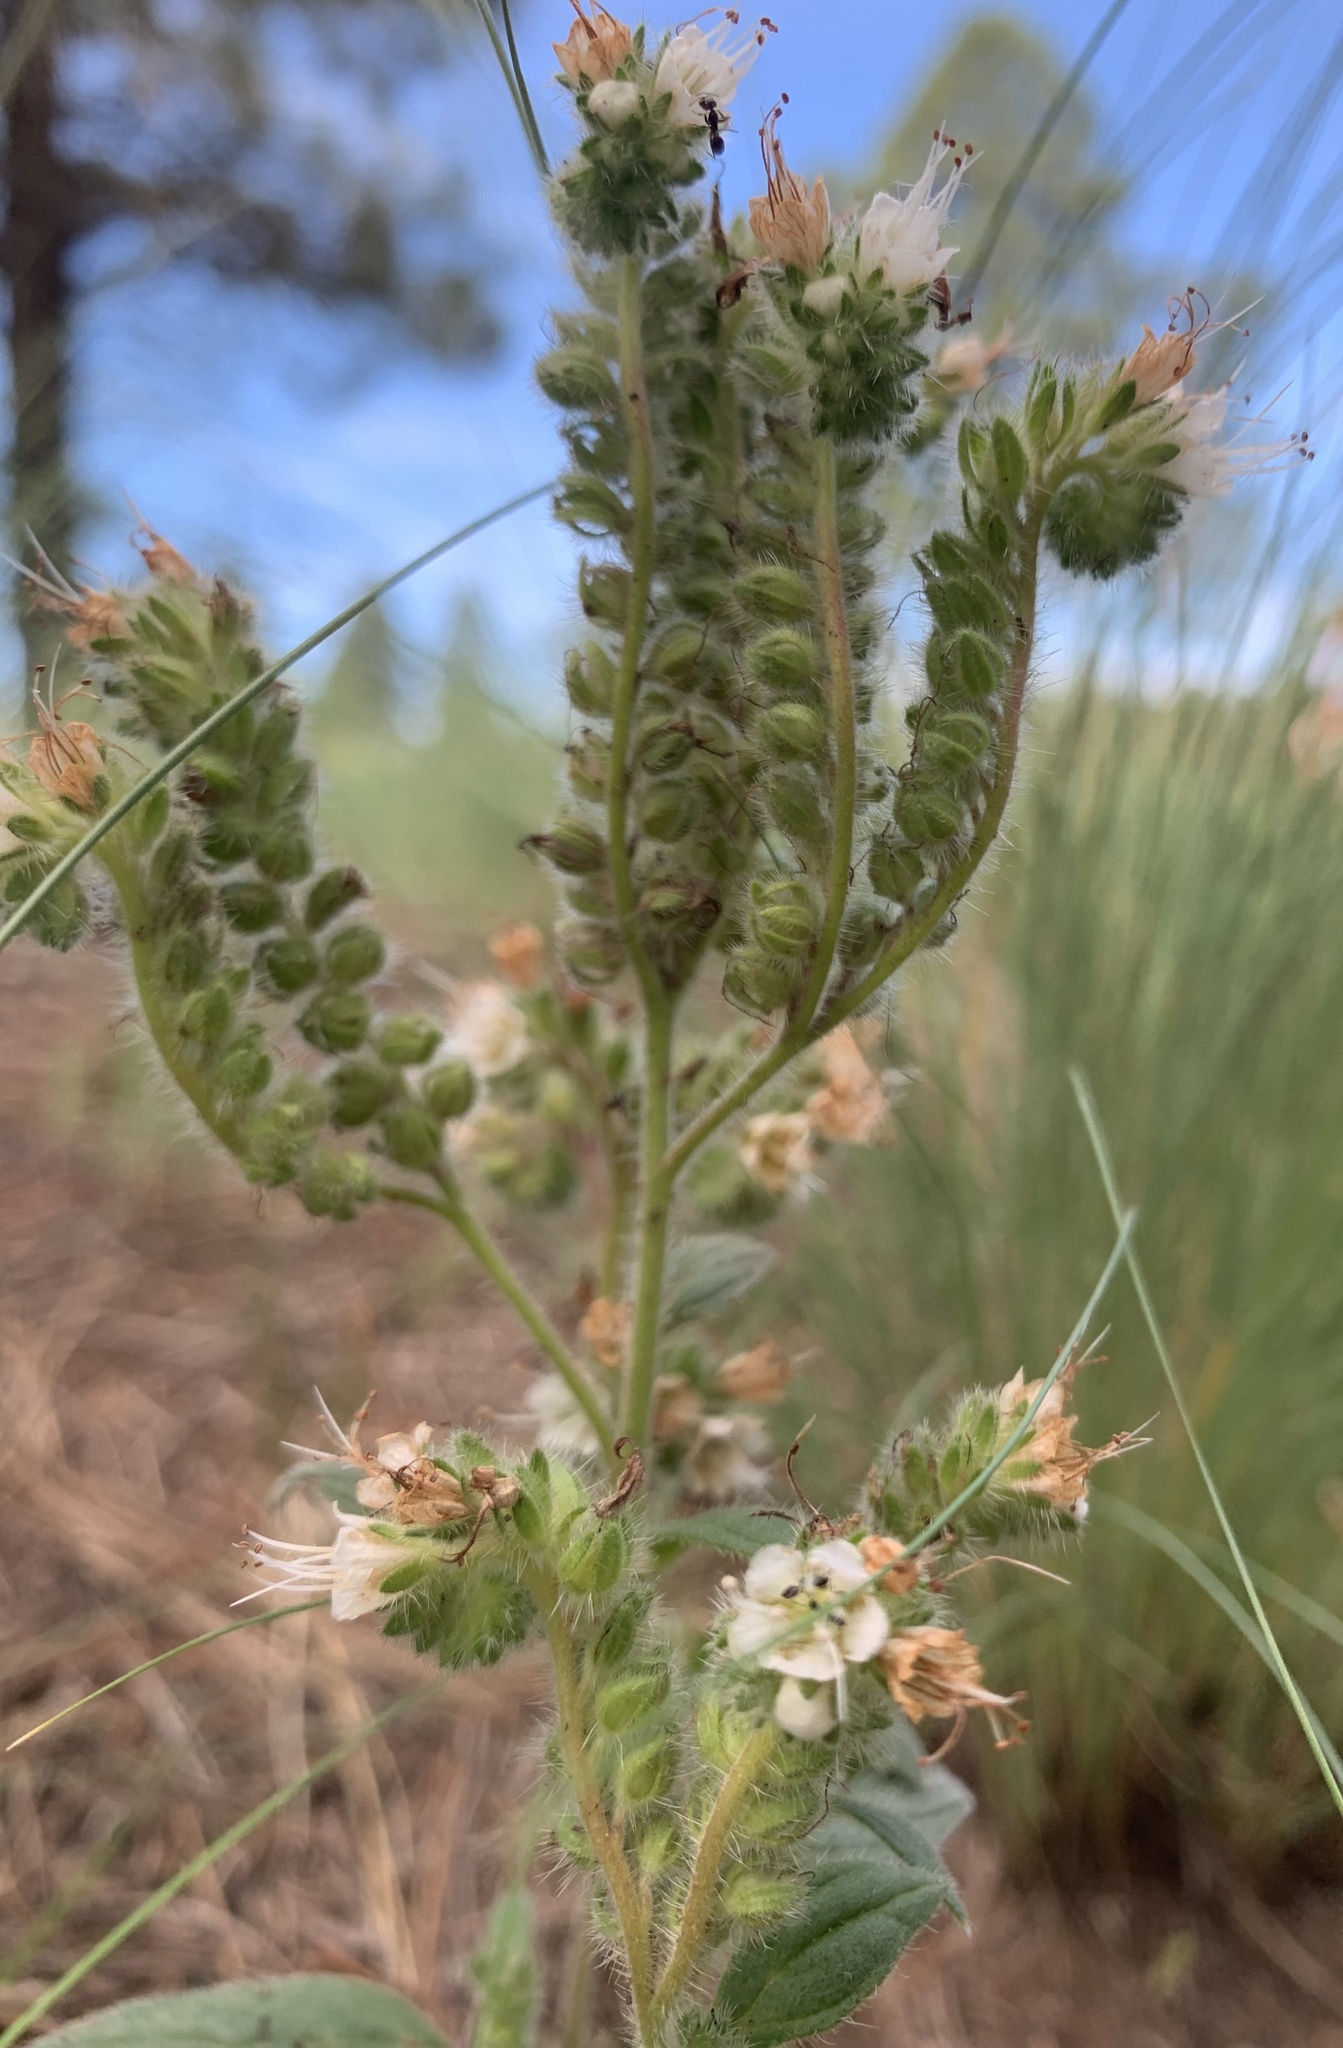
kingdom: Plantae
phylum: Tracheophyta
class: Magnoliopsida
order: Boraginales
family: Hydrophyllaceae
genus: Phacelia
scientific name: Phacelia heterophylla
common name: Variable-leaved phacelia
